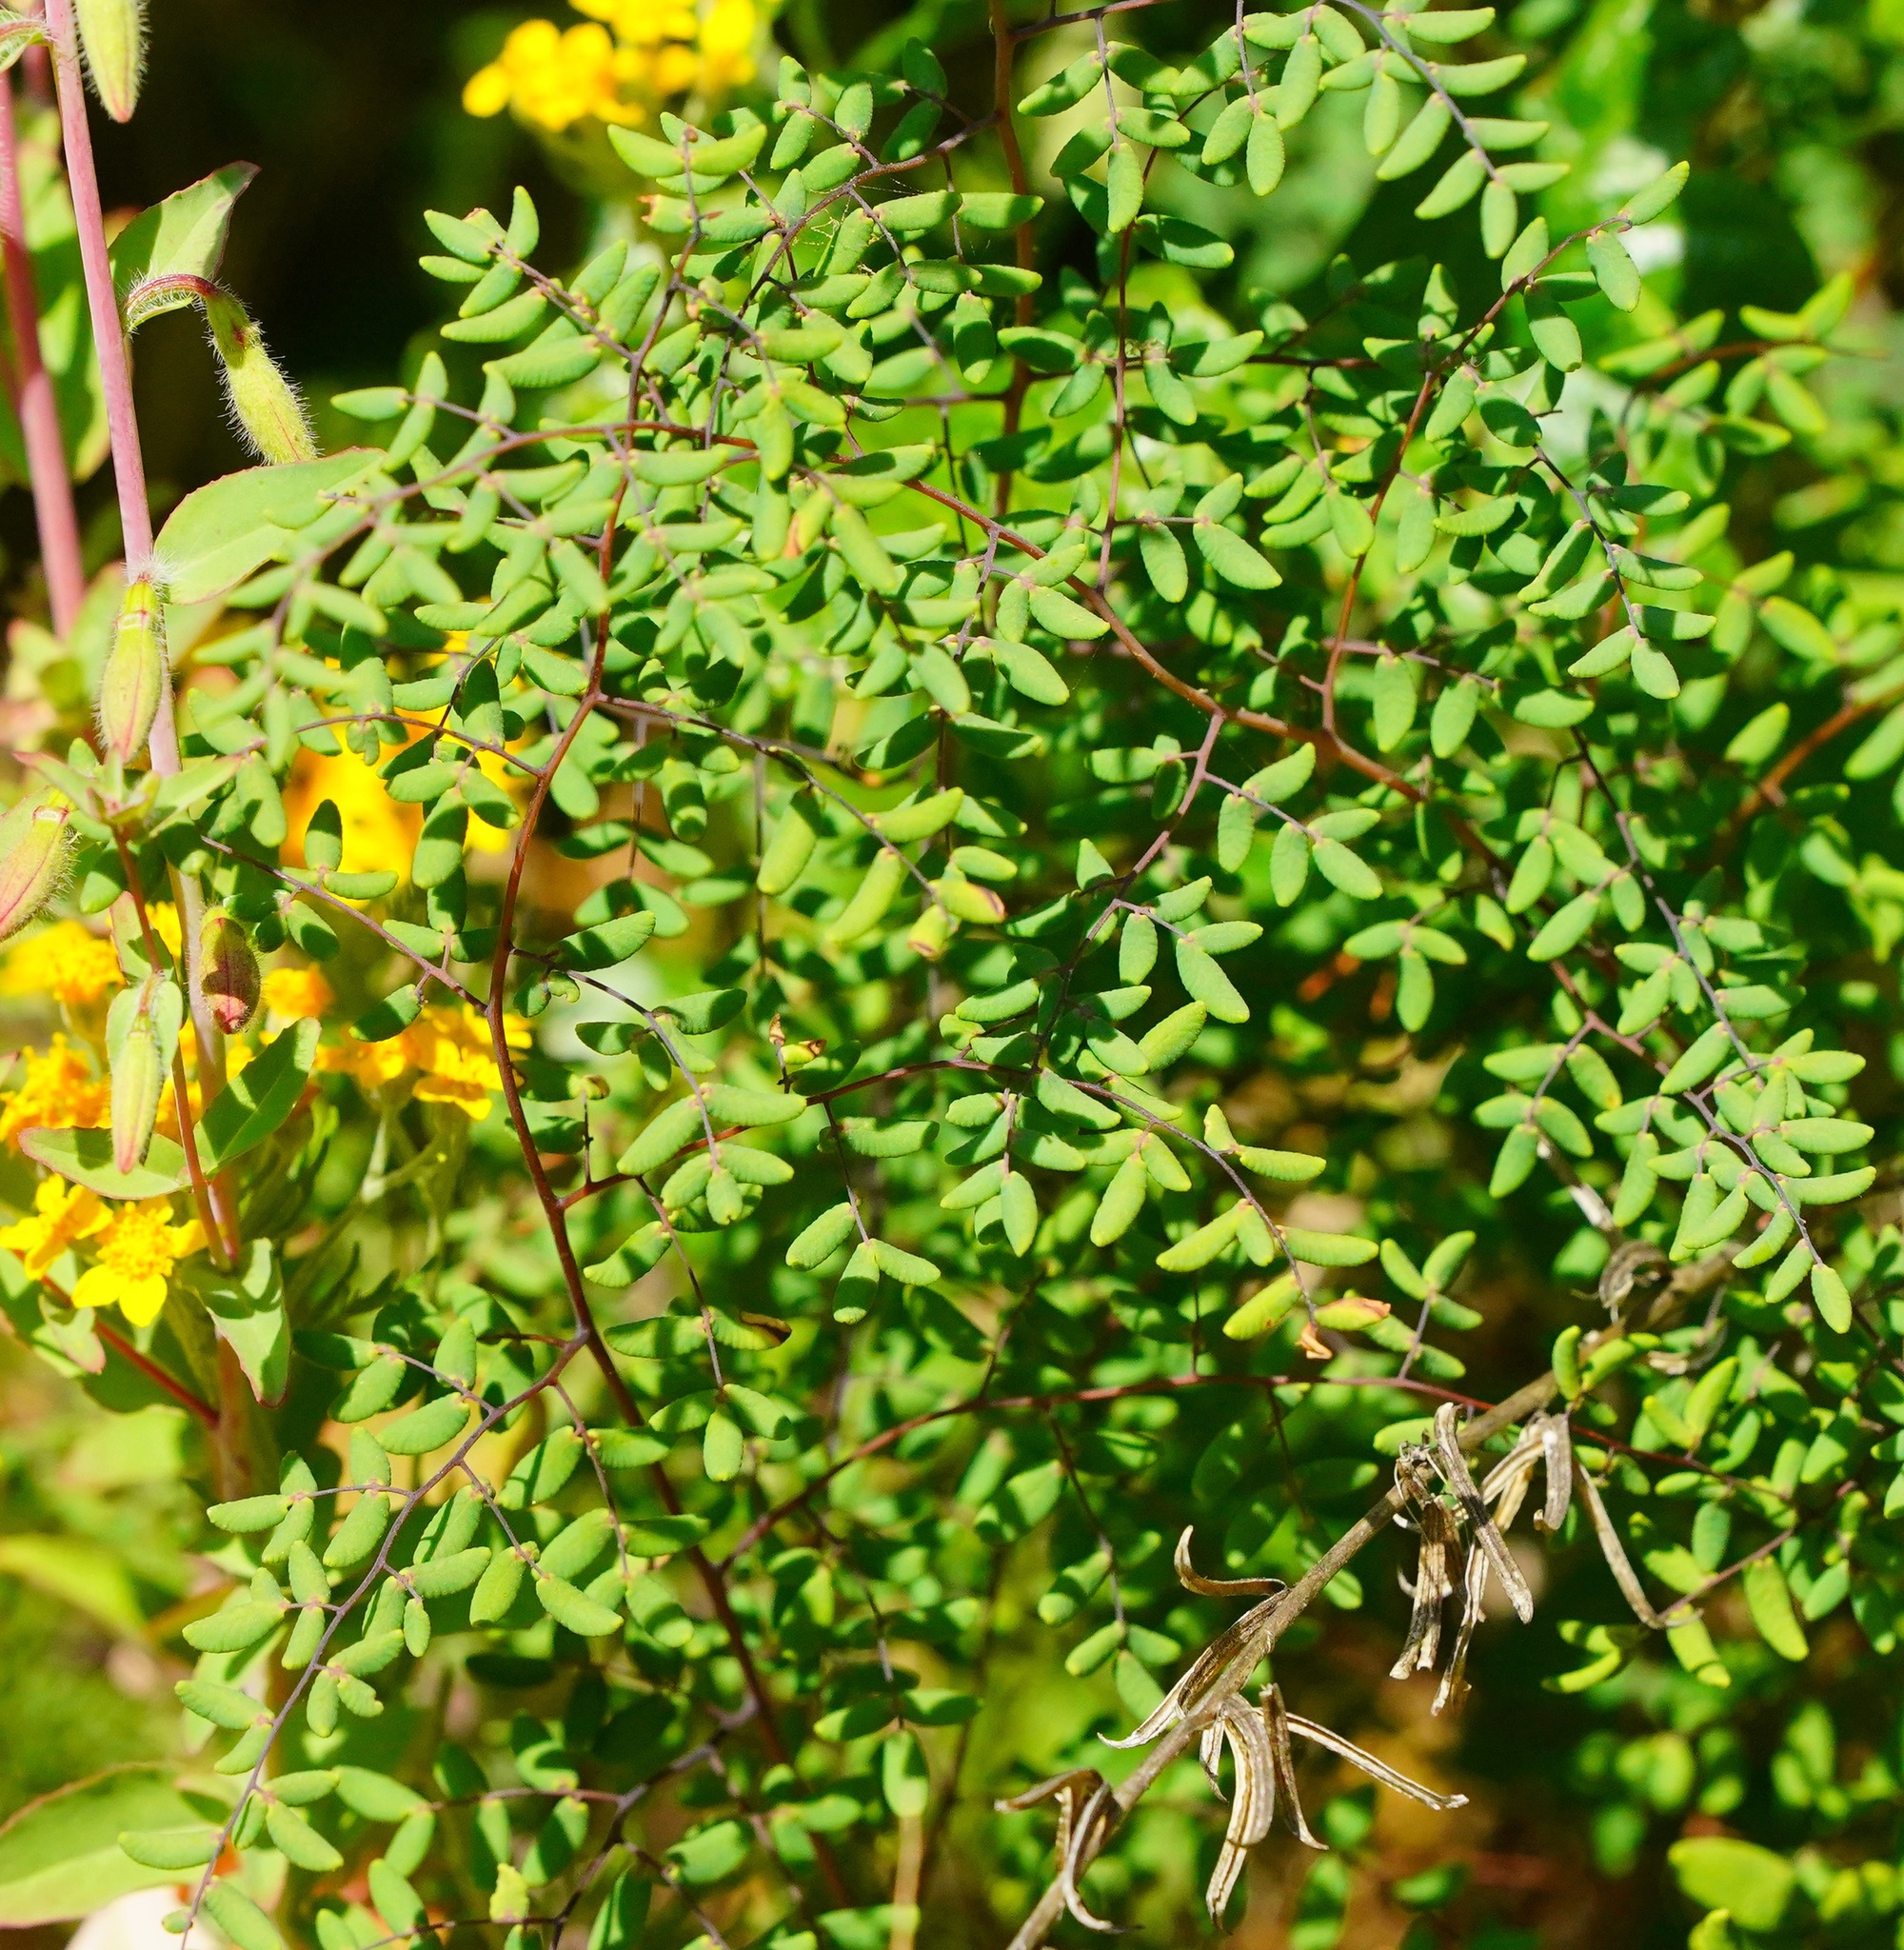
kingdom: Plantae
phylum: Tracheophyta
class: Polypodiopsida
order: Polypodiales
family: Pteridaceae
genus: Pellaea
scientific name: Pellaea andromedifolia
